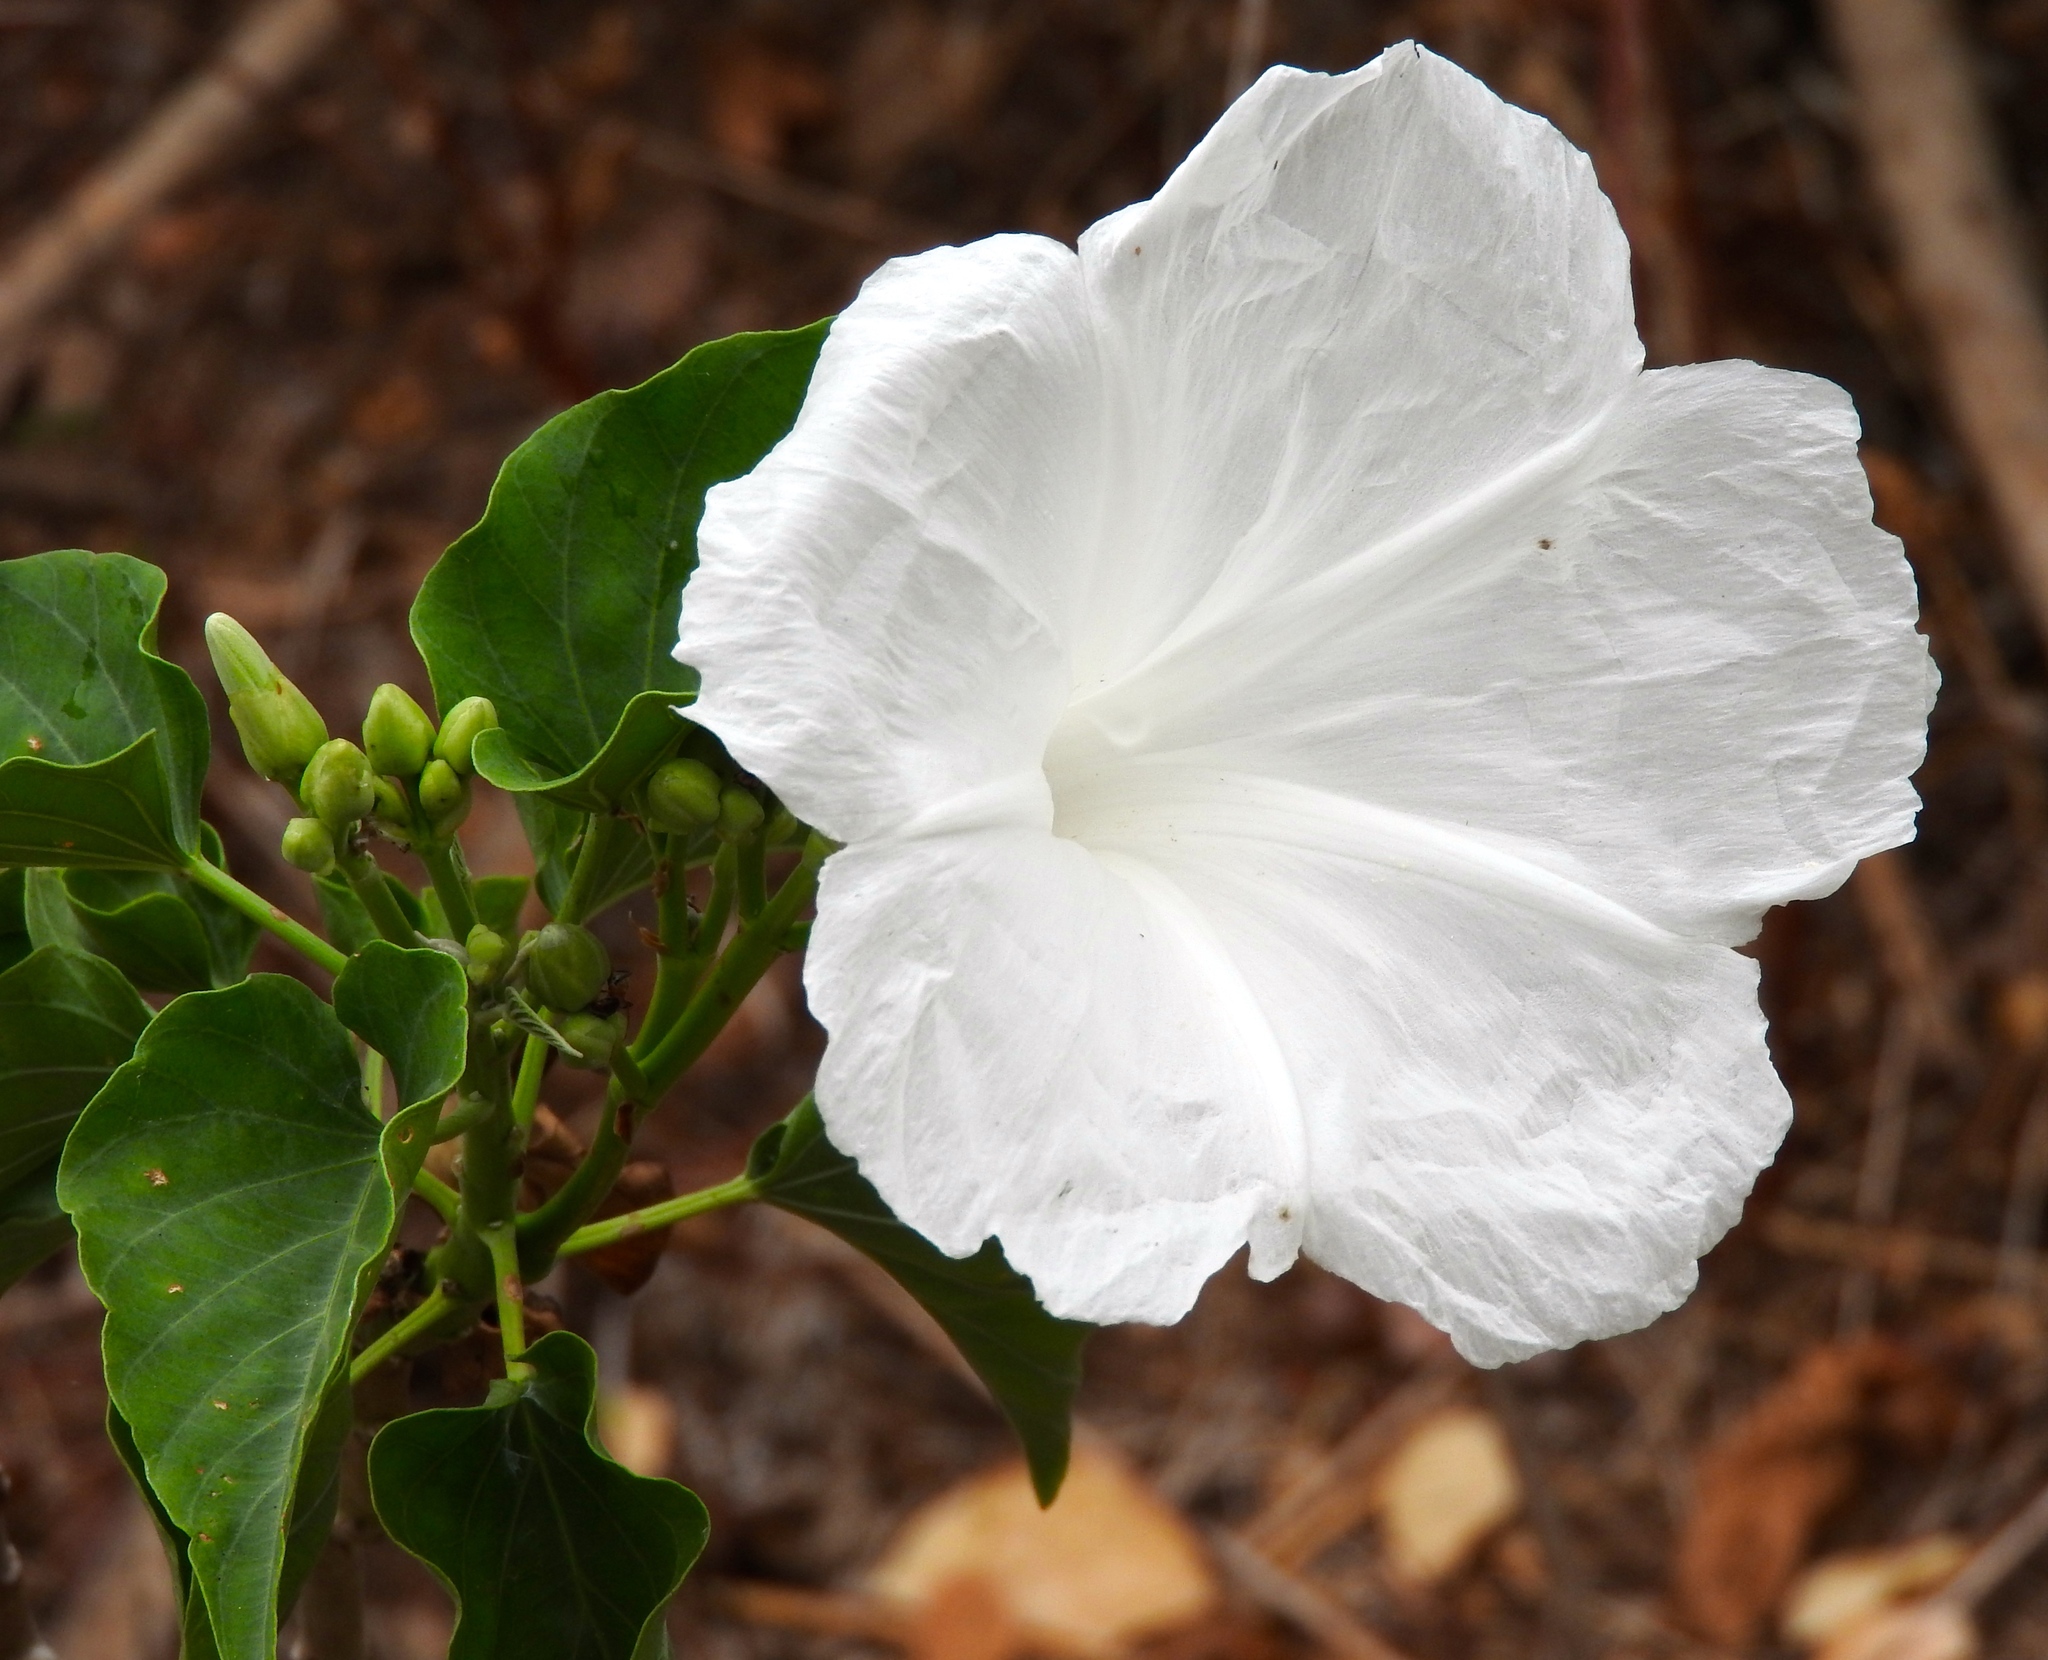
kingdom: Plantae
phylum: Tracheophyta
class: Magnoliopsida
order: Solanales
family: Convolvulaceae
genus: Ipomoea
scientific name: Ipomoea carnea
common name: Morning-glory
